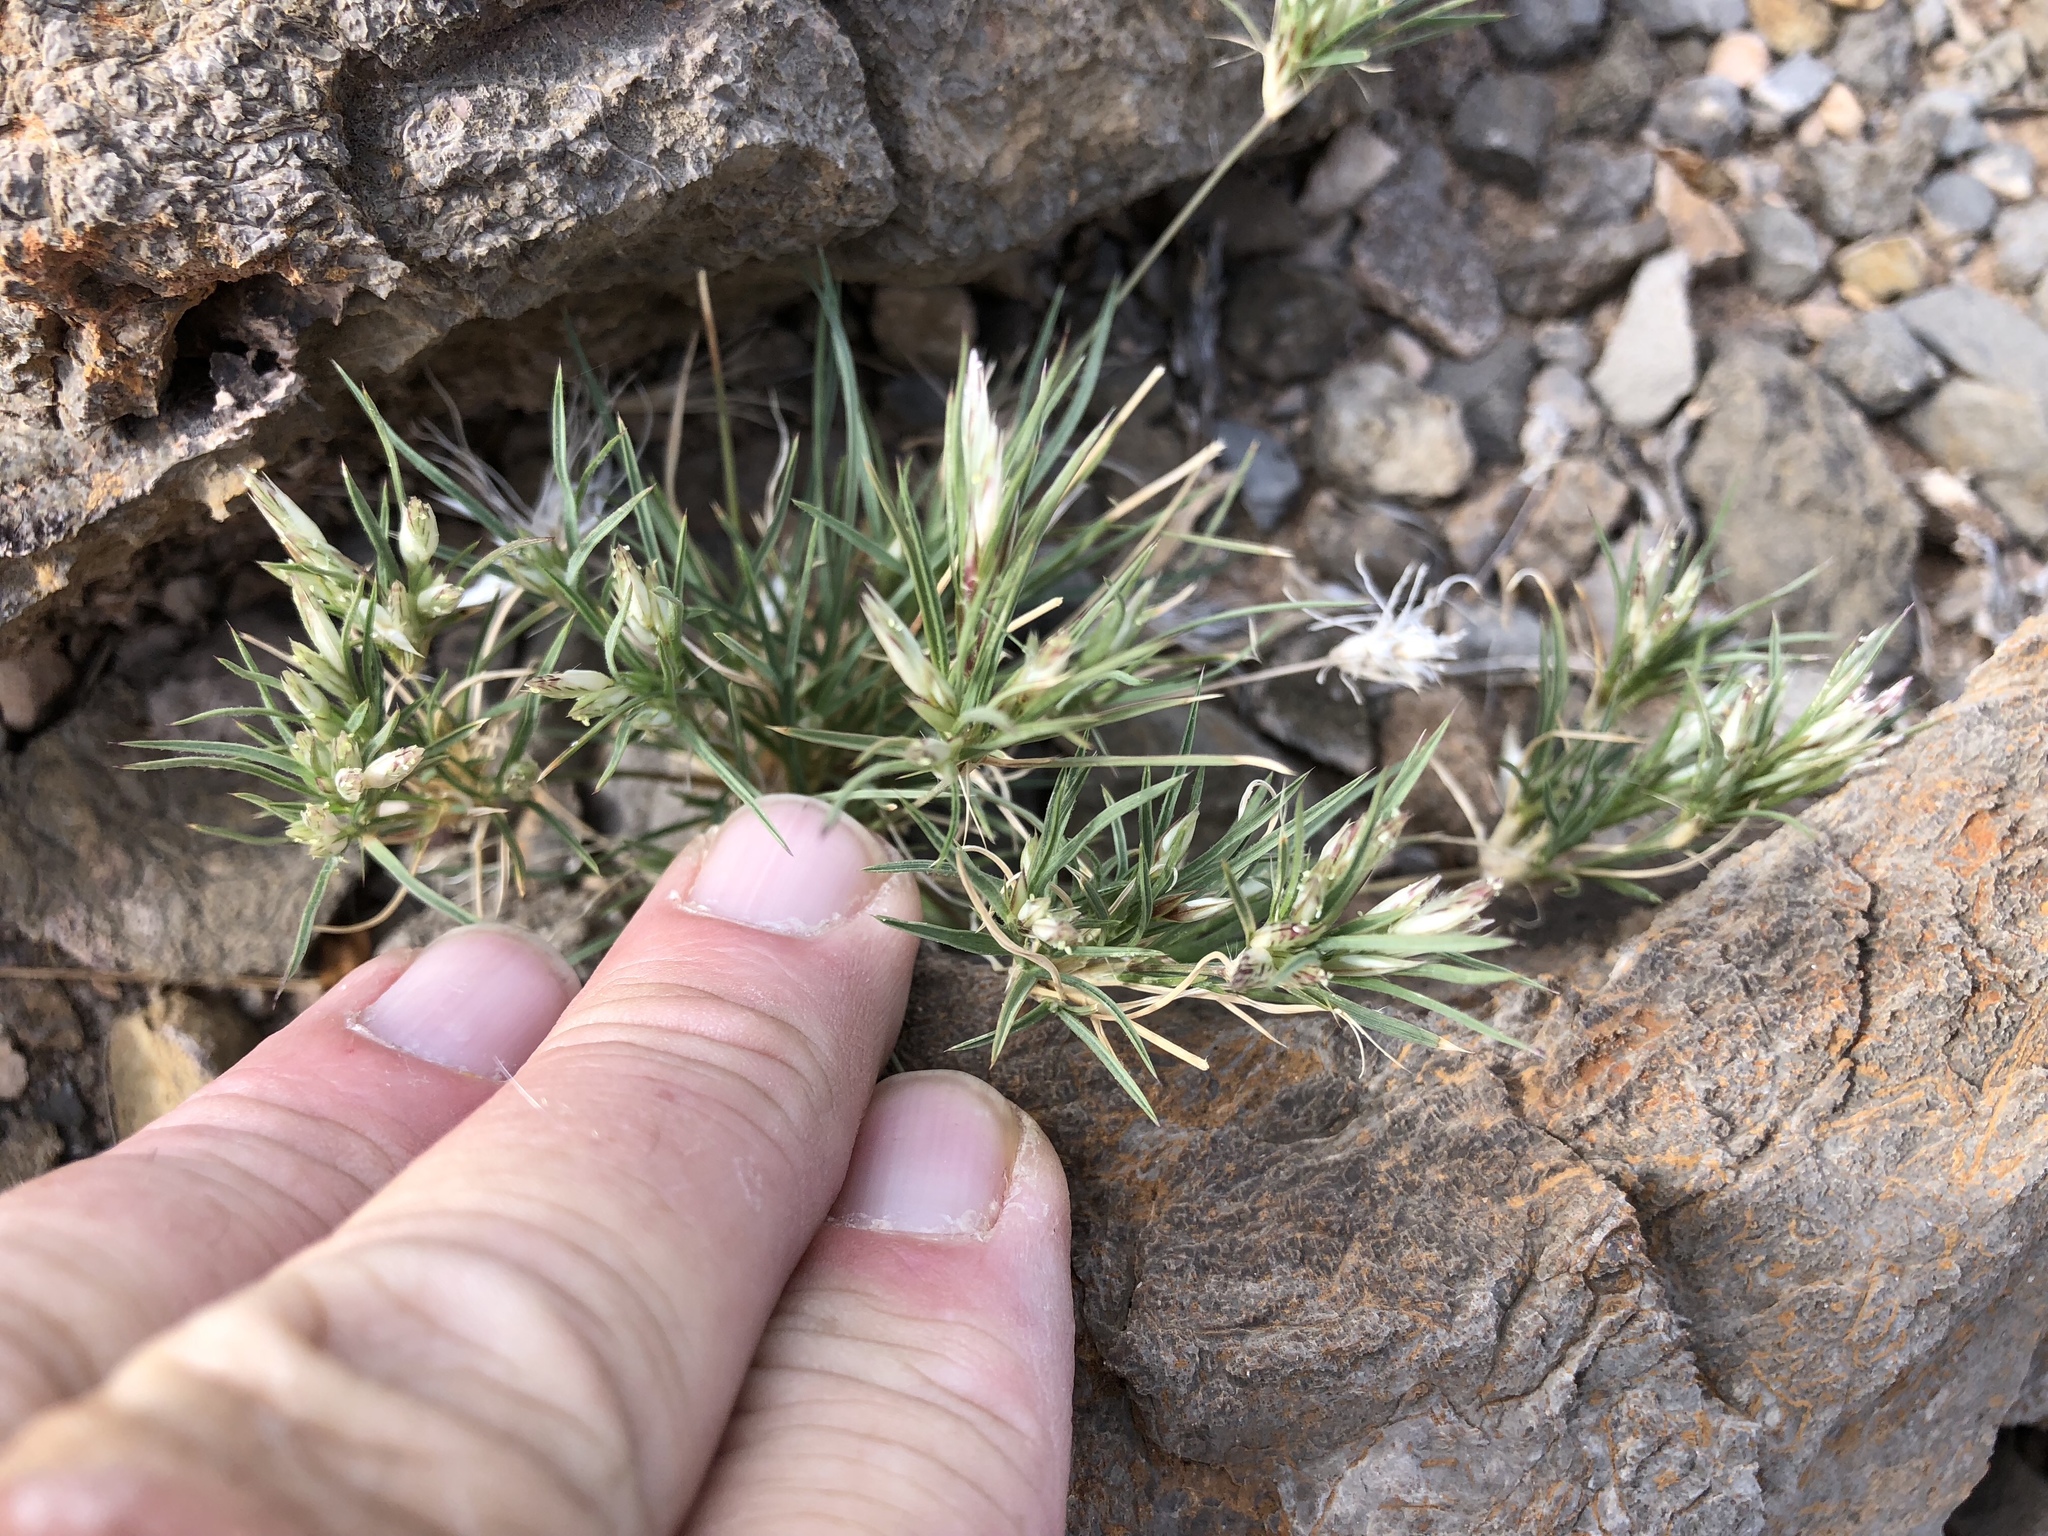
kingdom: Plantae
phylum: Tracheophyta
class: Liliopsida
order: Poales
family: Poaceae
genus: Dasyochloa
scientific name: Dasyochloa pulchella
